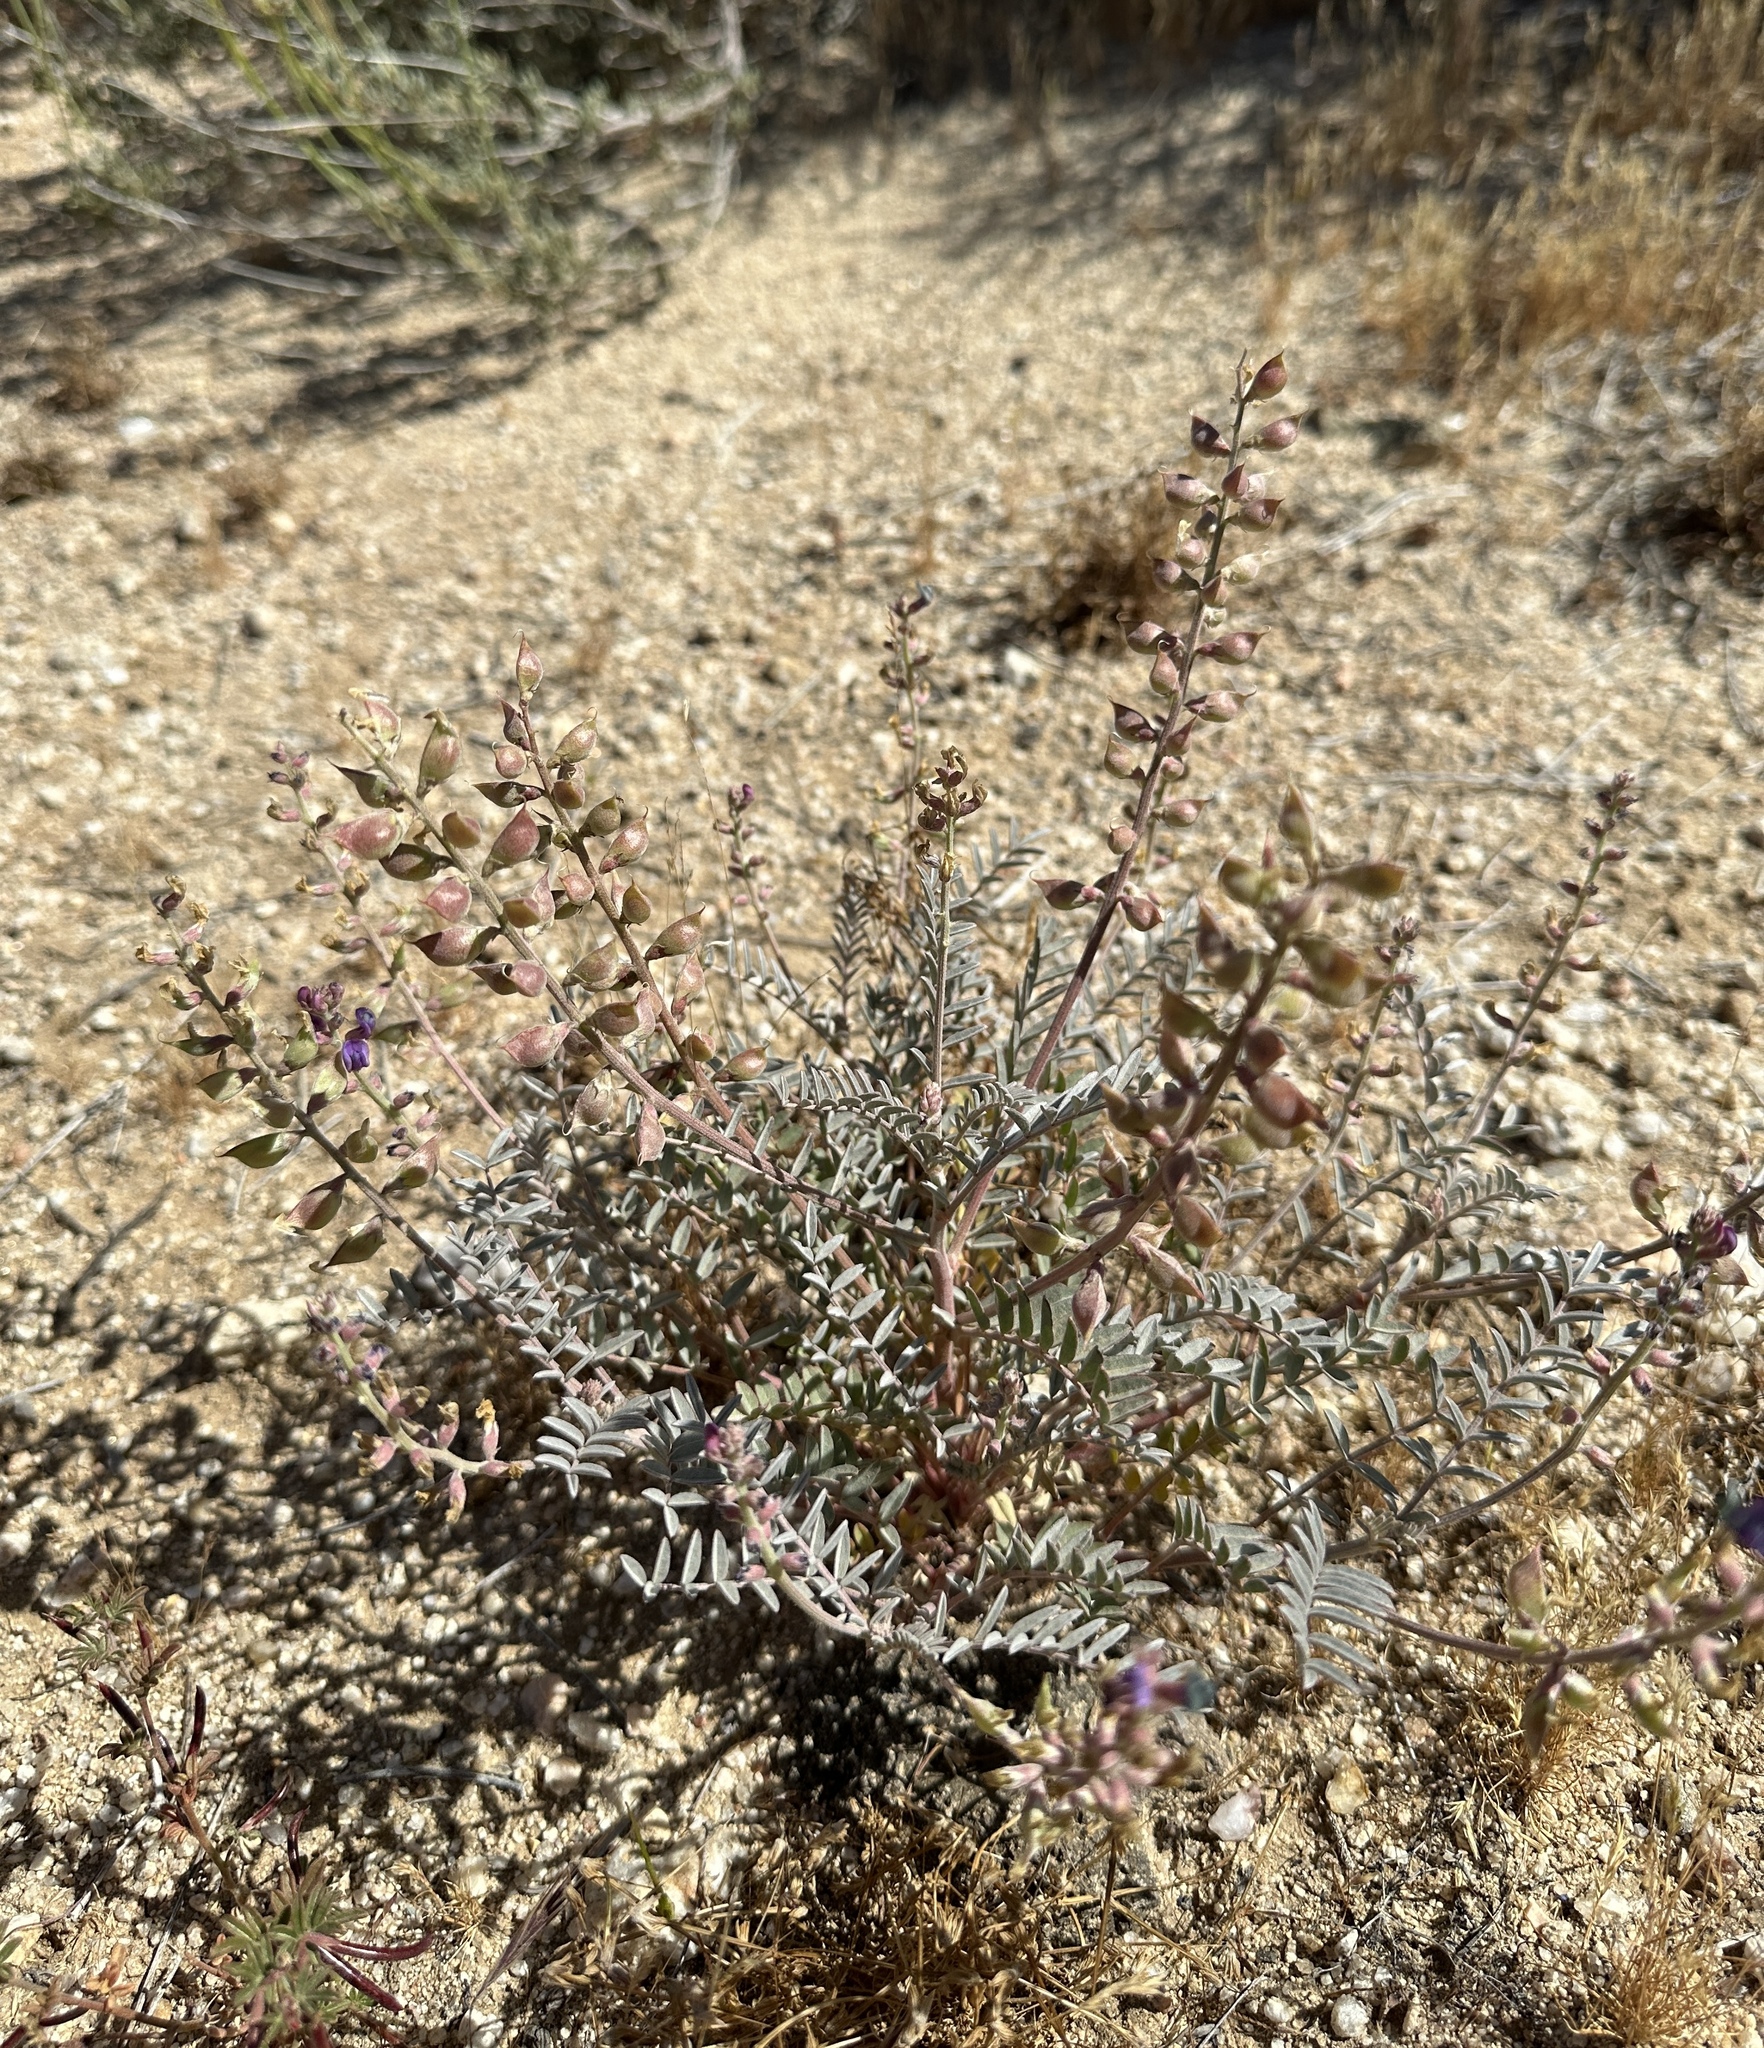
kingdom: Plantae
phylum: Tracheophyta
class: Magnoliopsida
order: Fabales
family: Fabaceae
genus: Astragalus
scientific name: Astragalus palmeri
